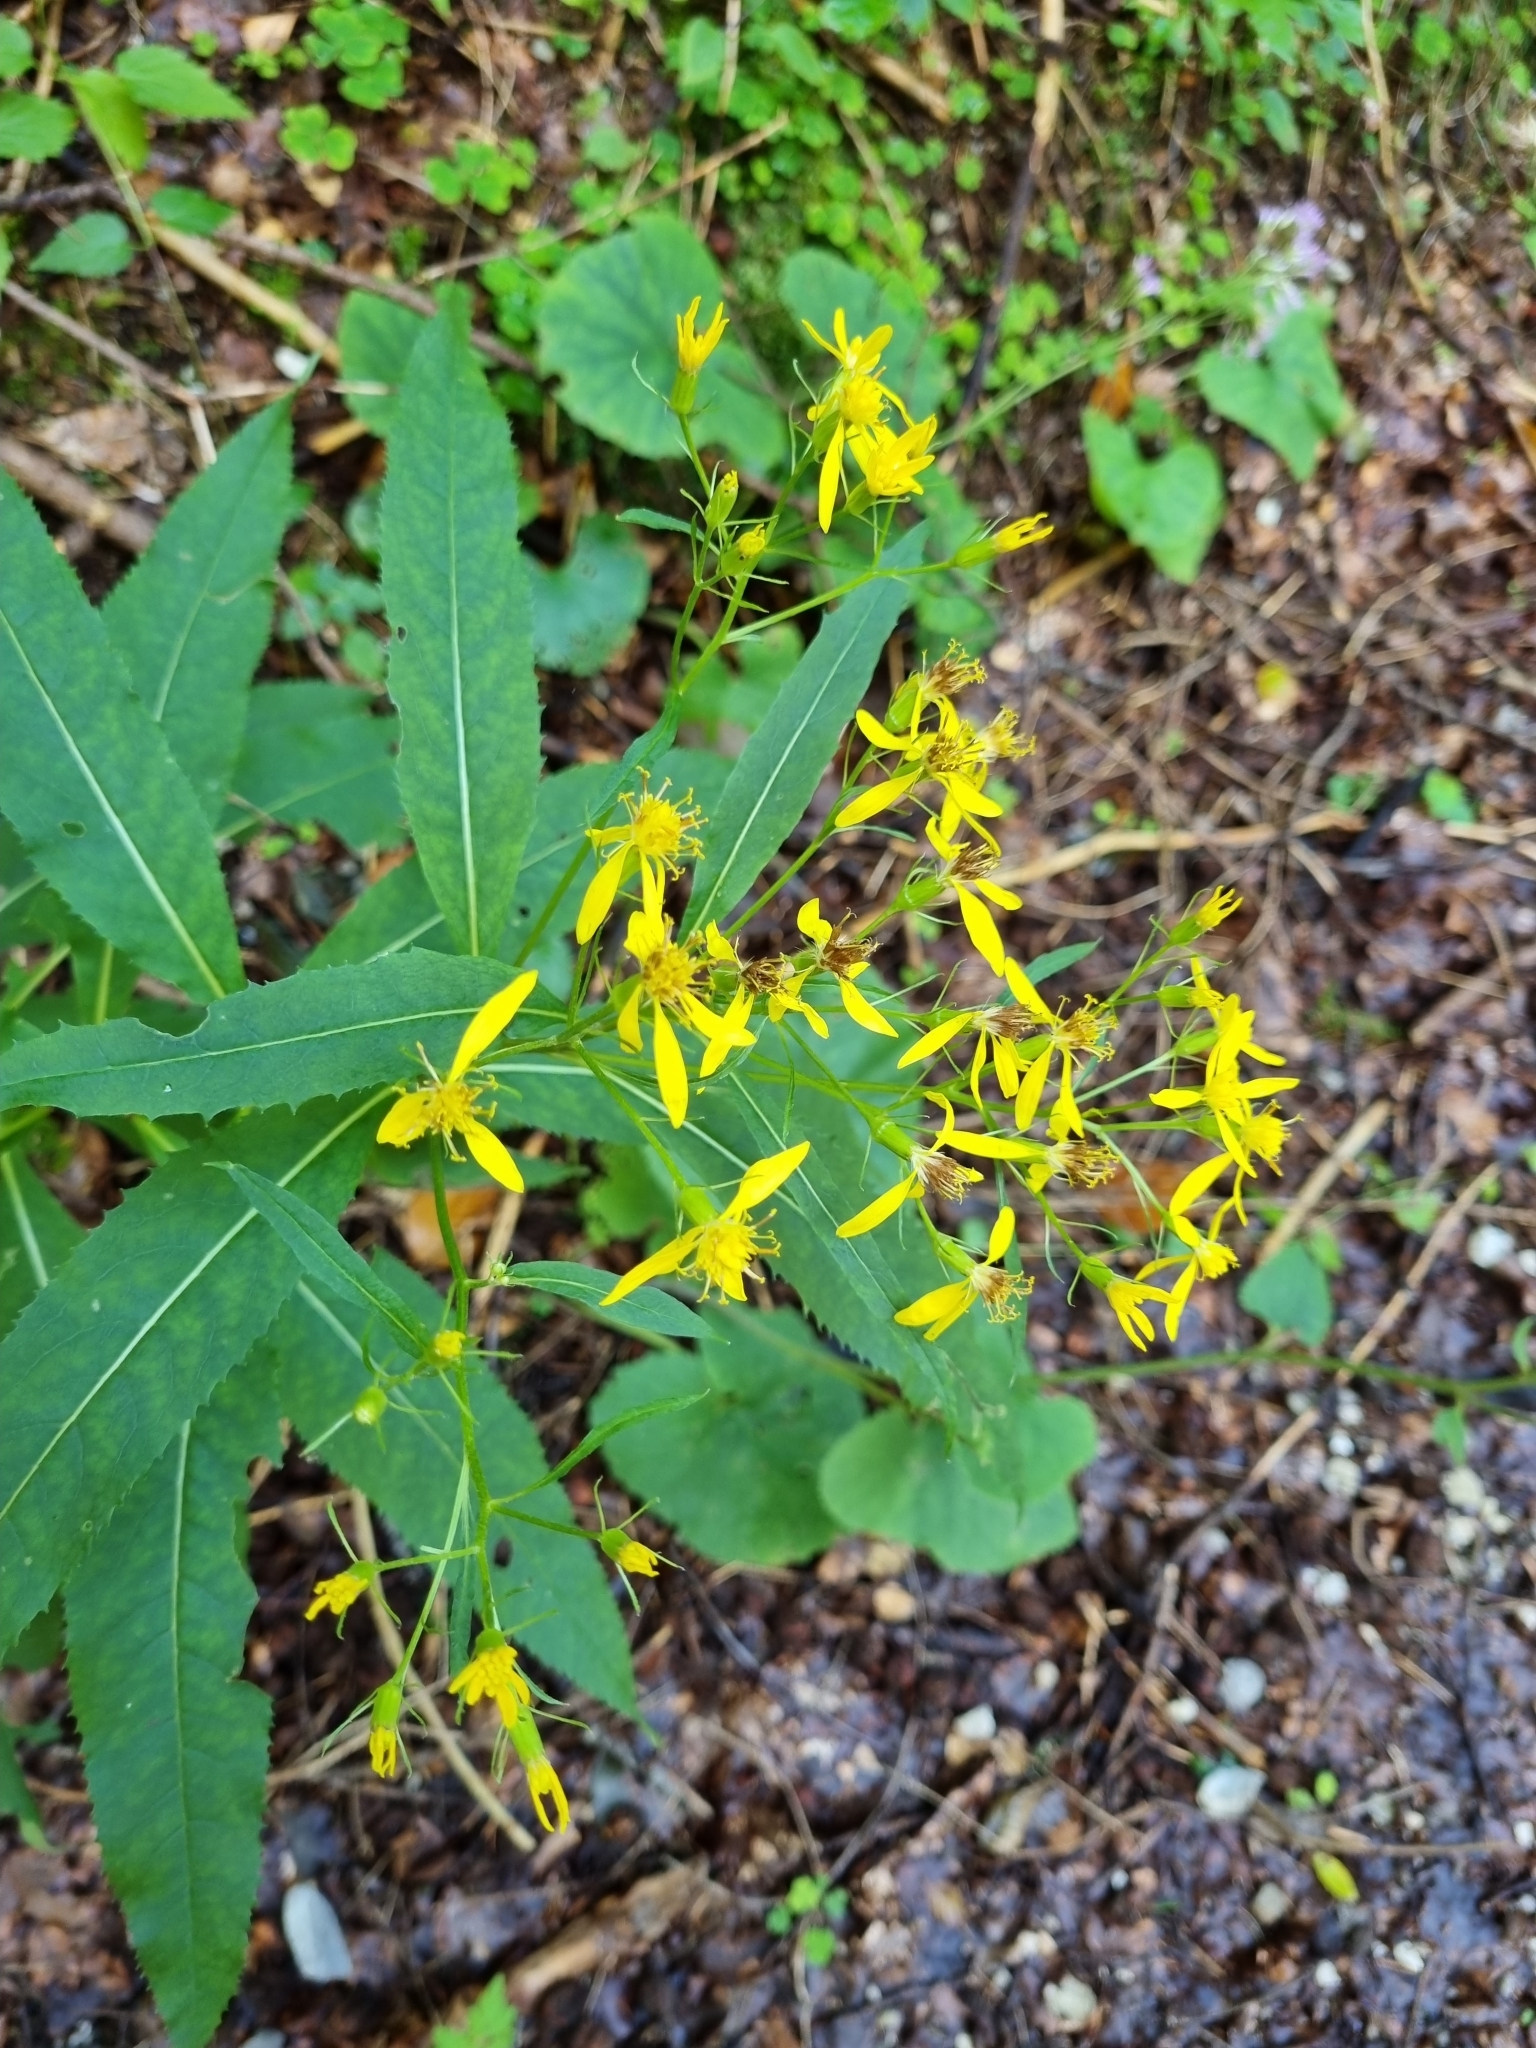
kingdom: Plantae
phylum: Tracheophyta
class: Magnoliopsida
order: Asterales
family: Asteraceae
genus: Senecio
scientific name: Senecio ovatus
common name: Wood ragwort
